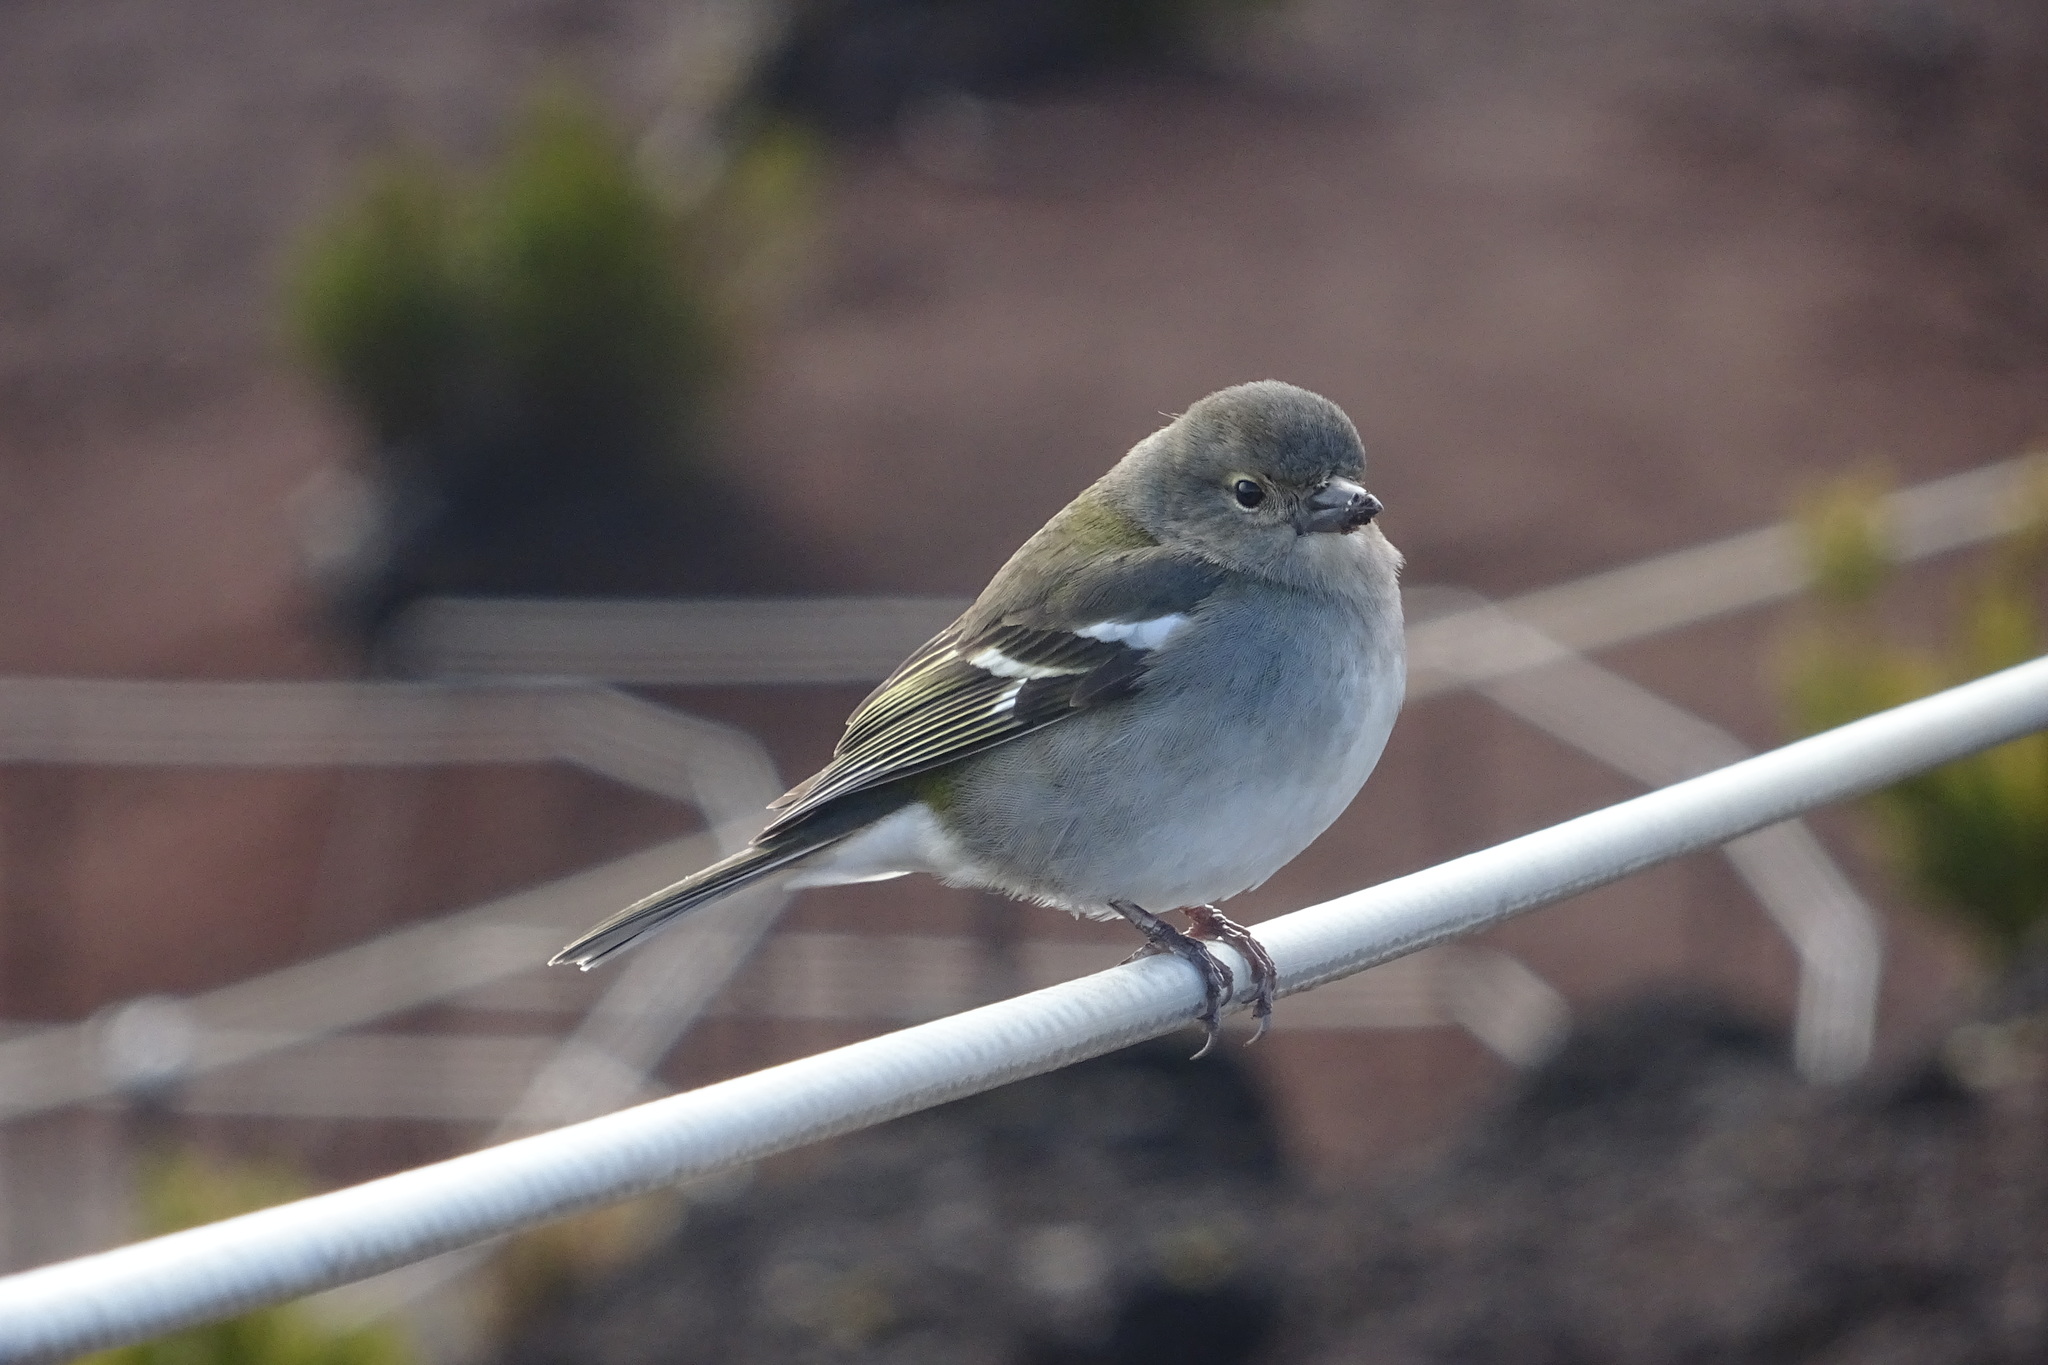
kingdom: Animalia
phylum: Chordata
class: Aves
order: Passeriformes
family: Fringillidae
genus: Fringilla
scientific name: Fringilla maderensis
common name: Madeira chaffinch
